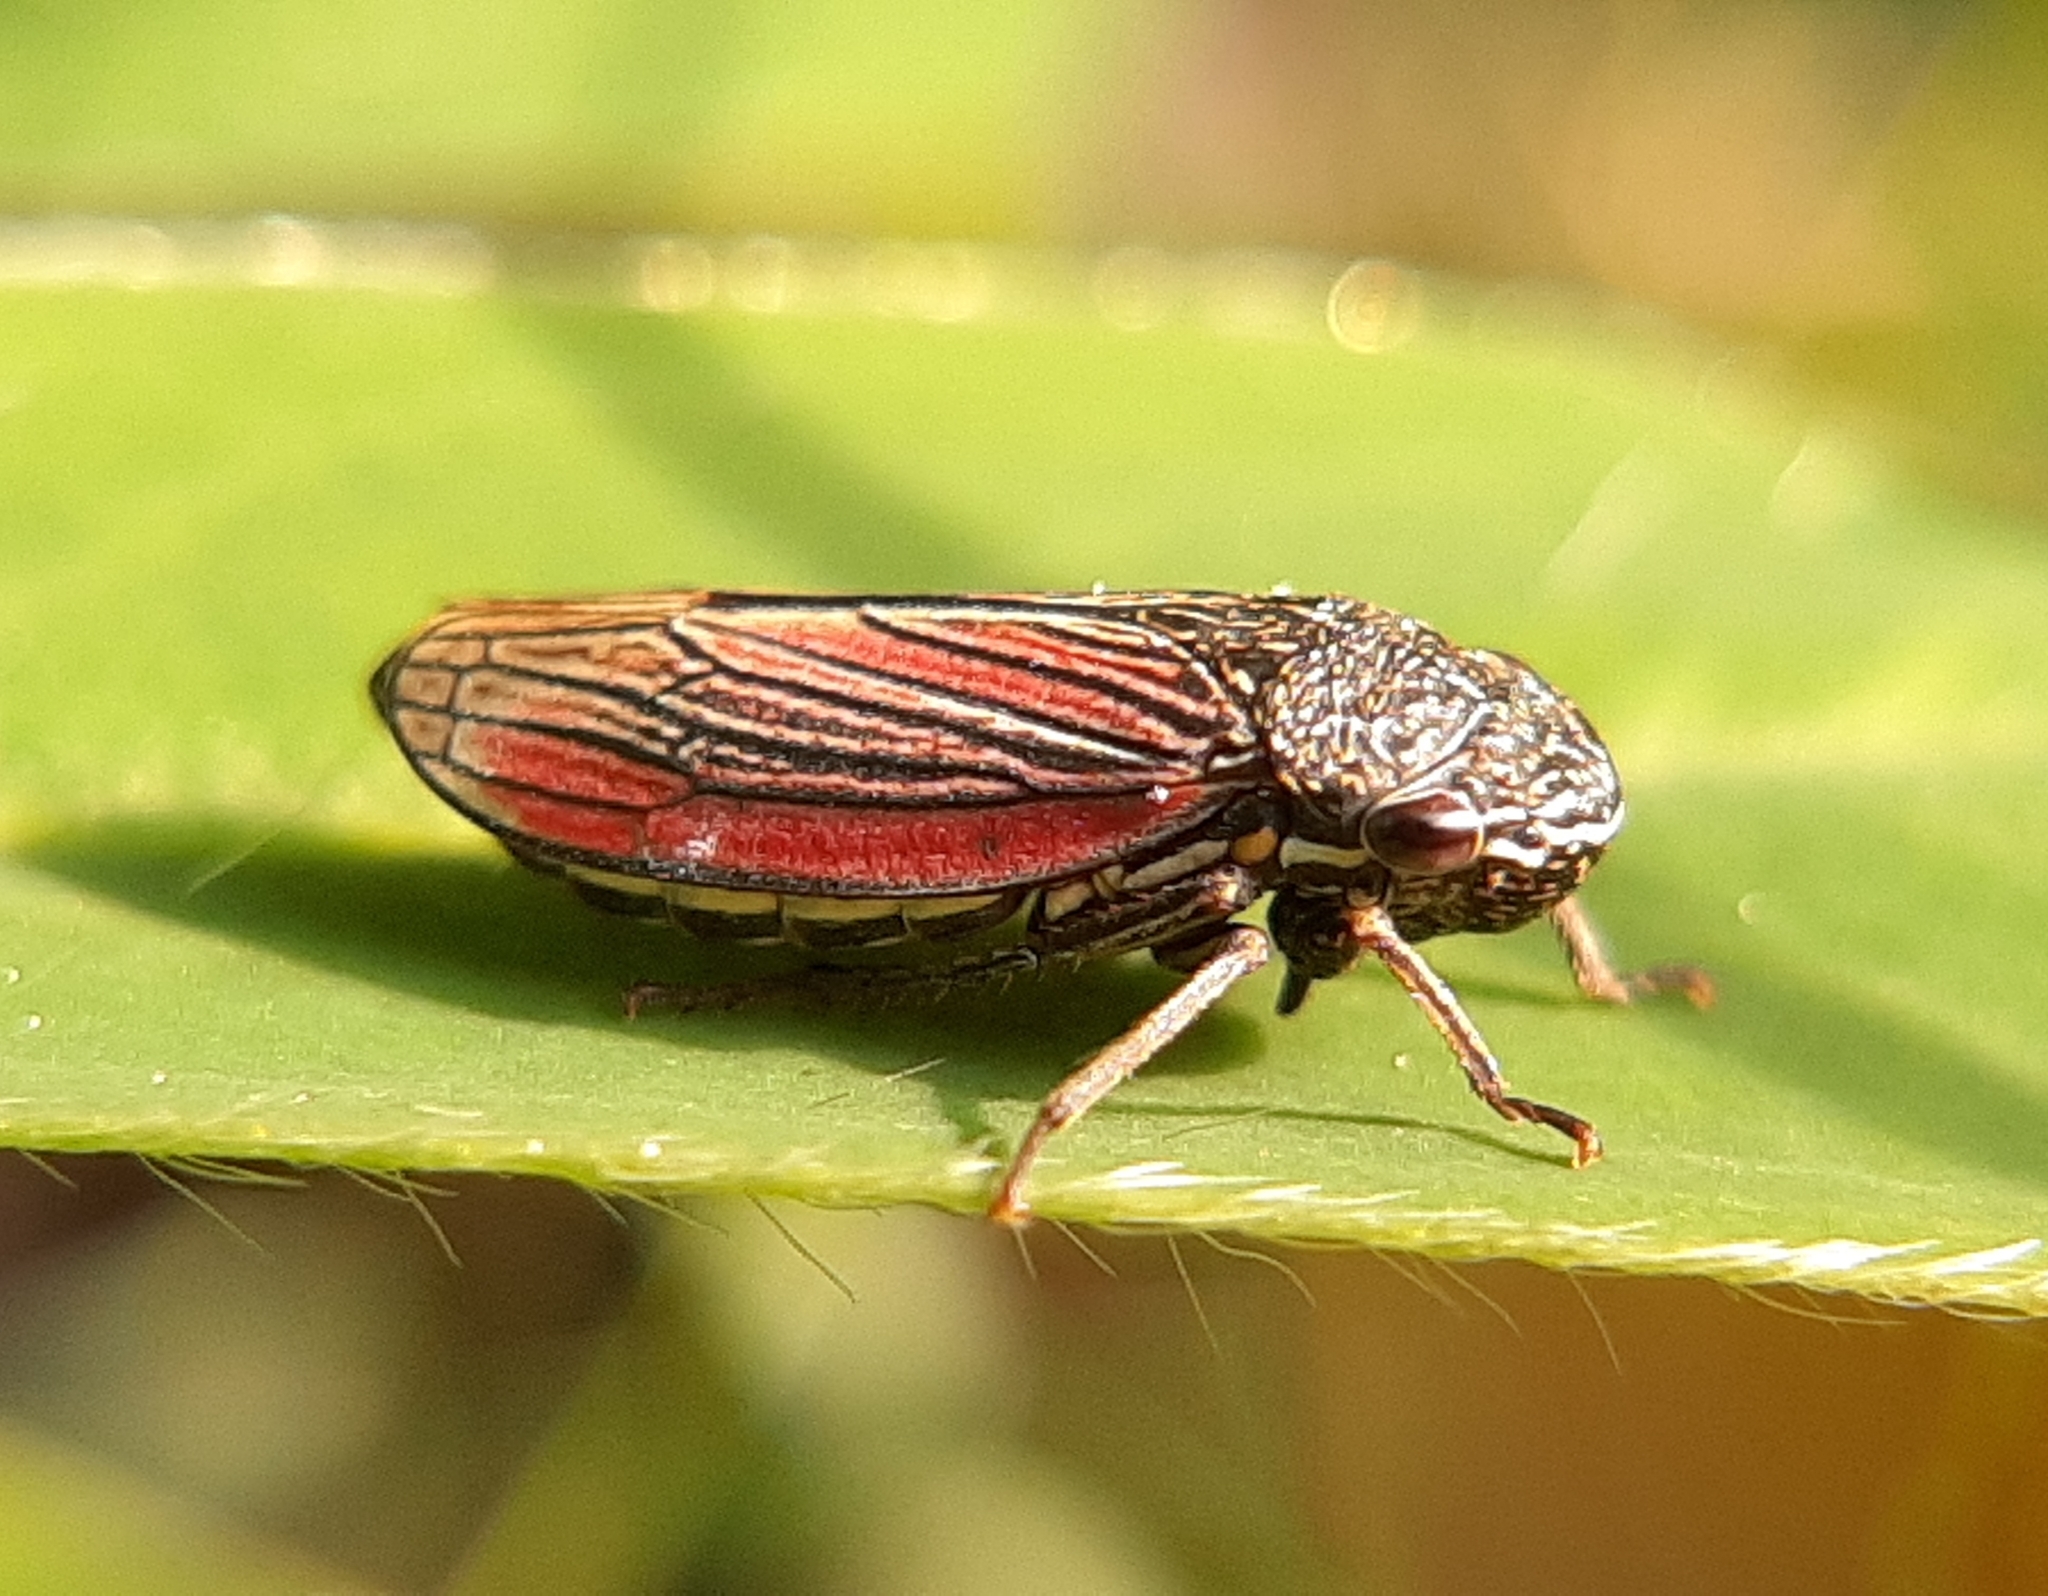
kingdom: Animalia
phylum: Arthropoda
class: Insecta
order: Hemiptera
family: Cicadellidae
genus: Cuerna
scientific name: Cuerna striata
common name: Striped leafhopper
